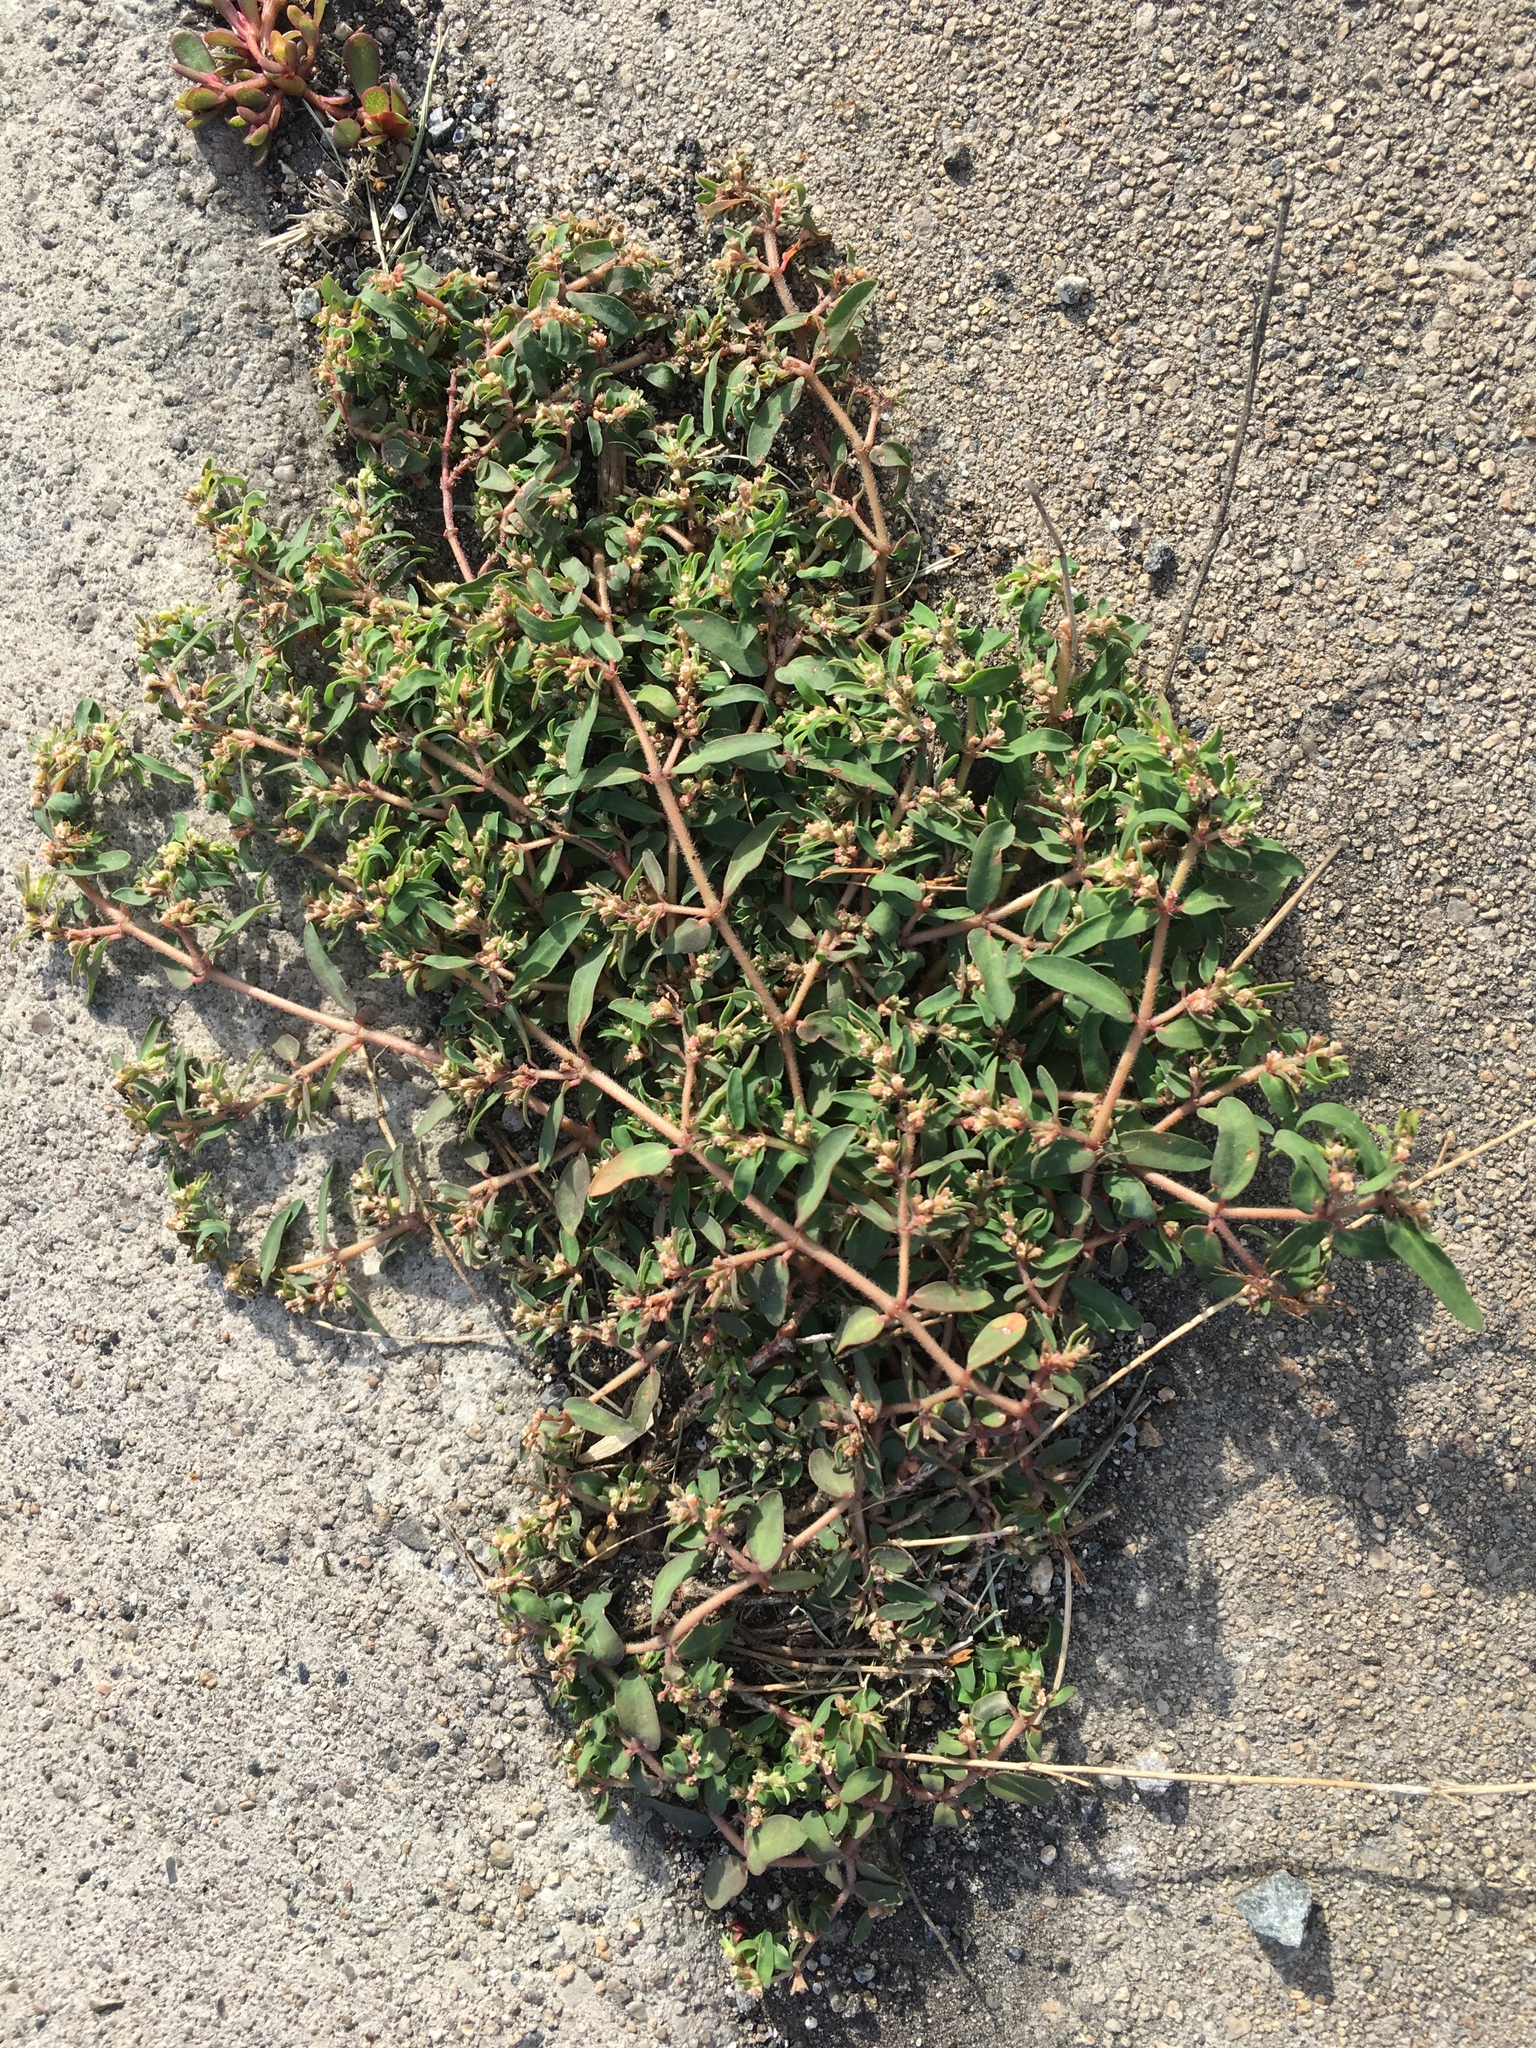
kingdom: Plantae
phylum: Tracheophyta
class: Magnoliopsida
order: Malpighiales
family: Euphorbiaceae
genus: Euphorbia
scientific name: Euphorbia maculata
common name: Spotted spurge
